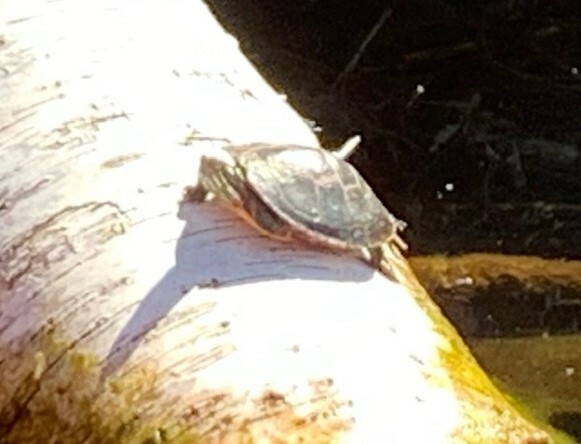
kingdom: Animalia
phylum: Chordata
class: Testudines
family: Emydidae
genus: Chrysemys
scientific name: Chrysemys picta
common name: Painted turtle
